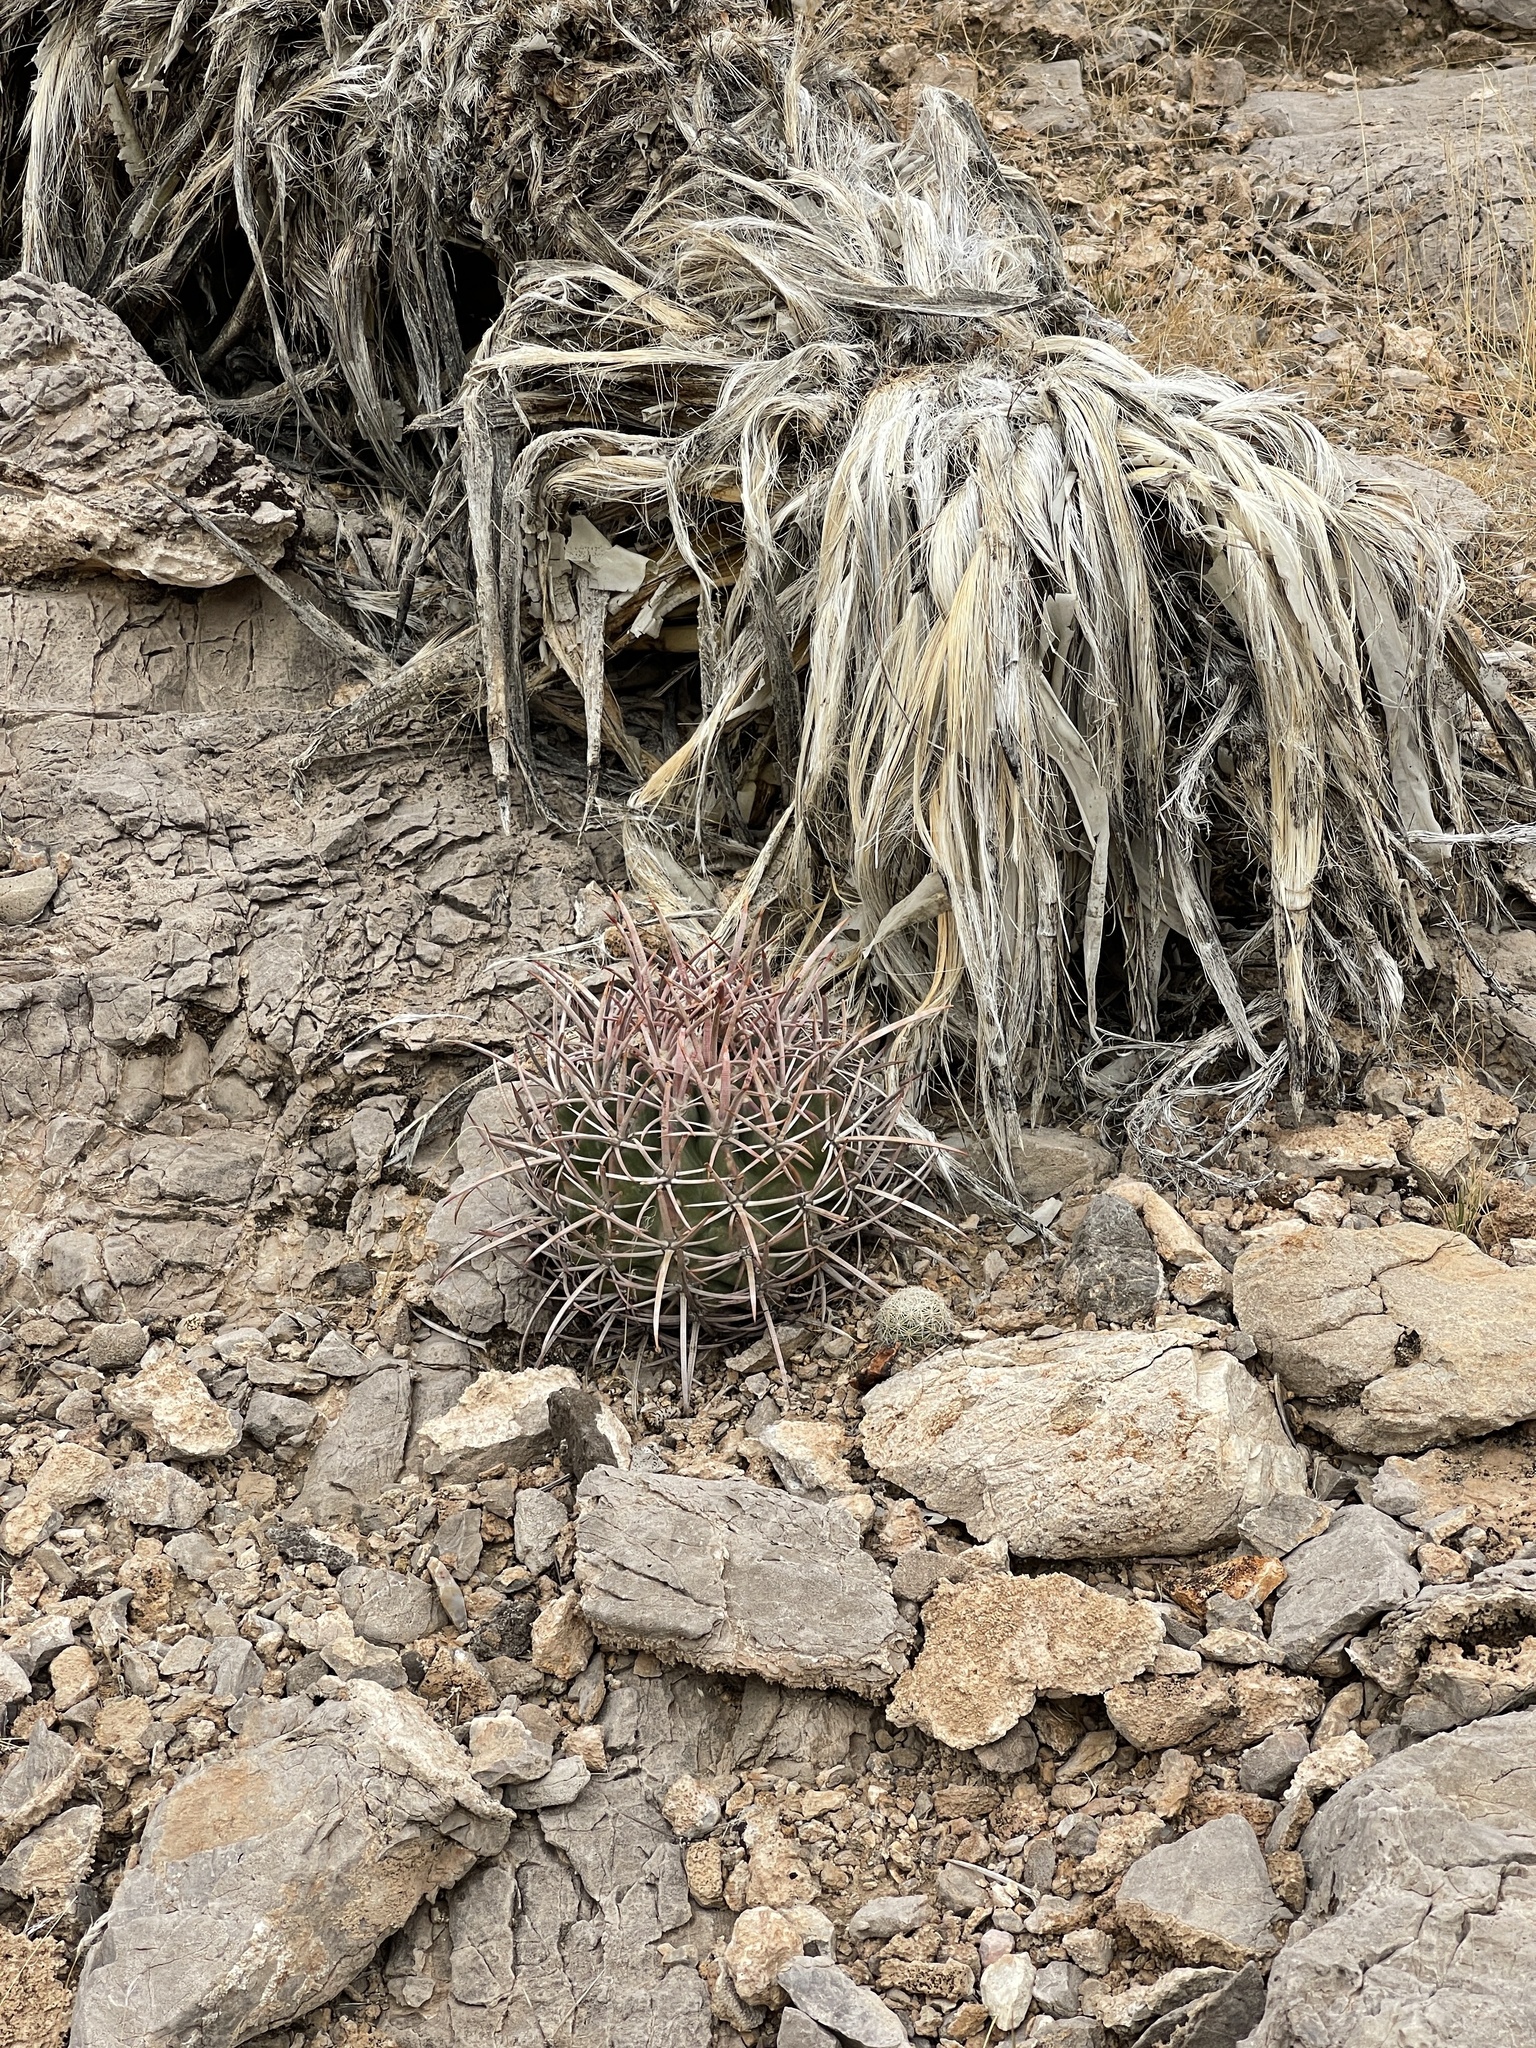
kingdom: Plantae
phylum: Tracheophyta
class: Magnoliopsida
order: Caryophyllales
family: Cactaceae
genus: Echinocactus
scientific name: Echinocactus polycephalus
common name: Cottontop cactus
